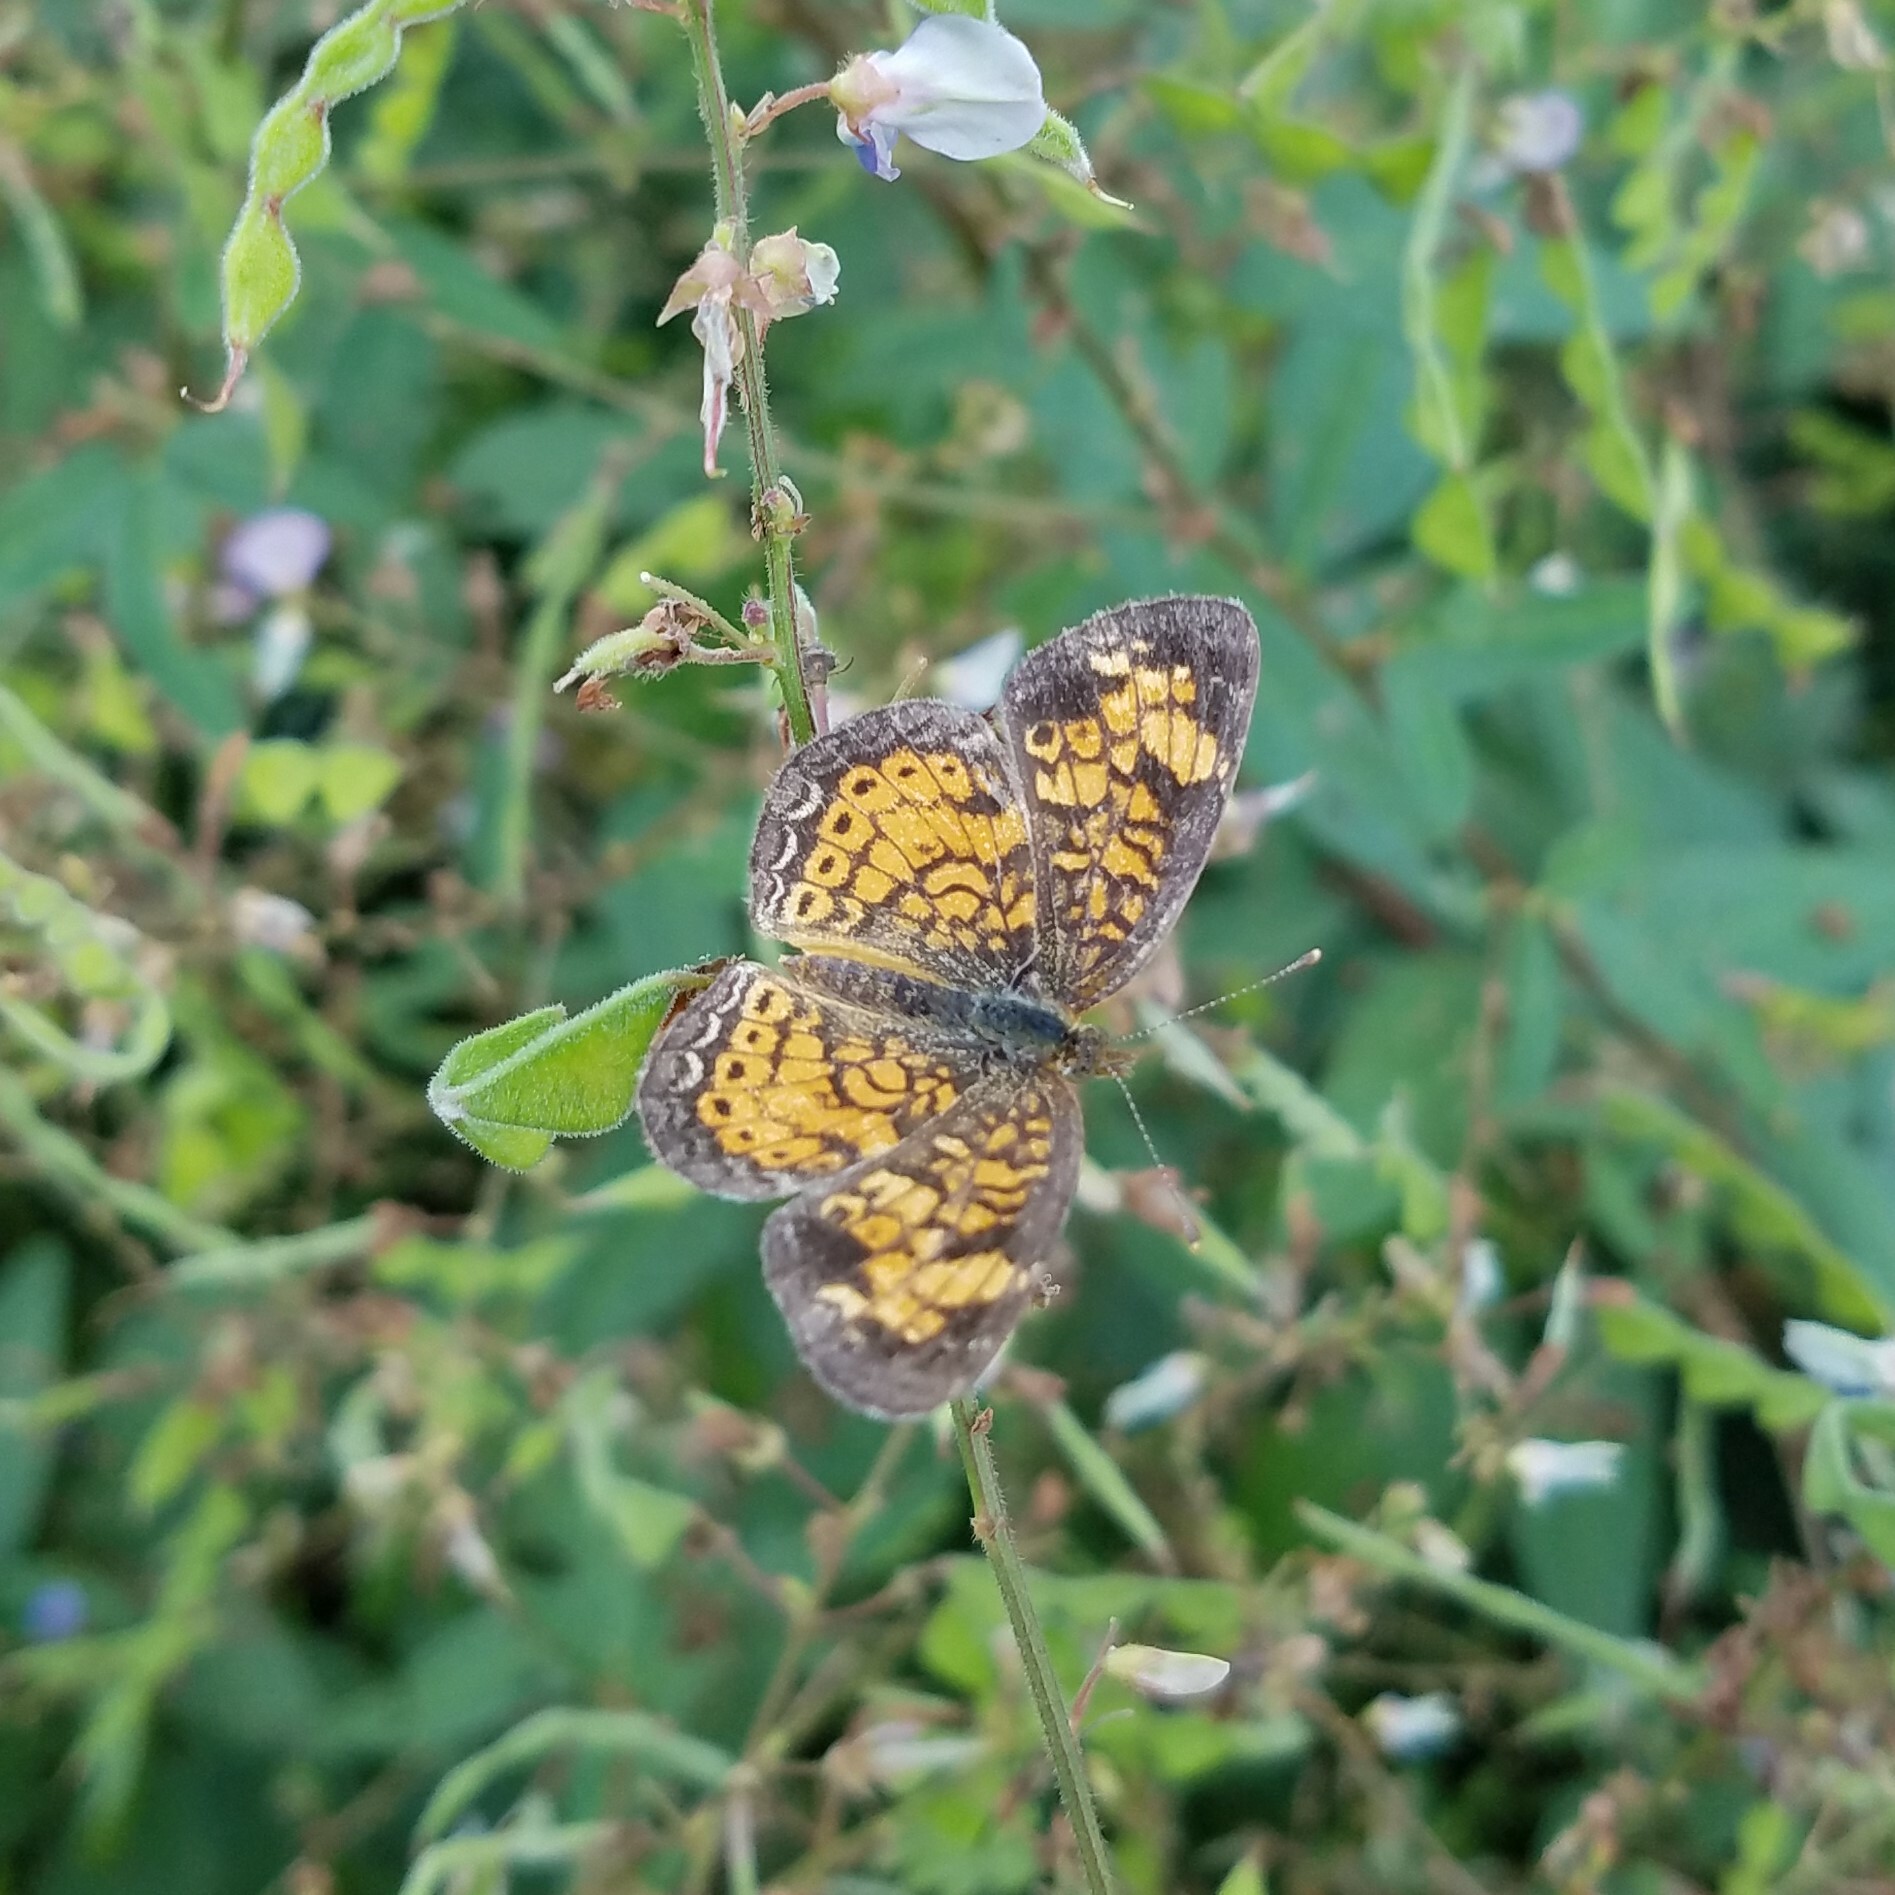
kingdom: Animalia
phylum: Arthropoda
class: Insecta
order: Lepidoptera
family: Nymphalidae
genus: Phyciodes
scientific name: Phyciodes tharos
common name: Pearl crescent
